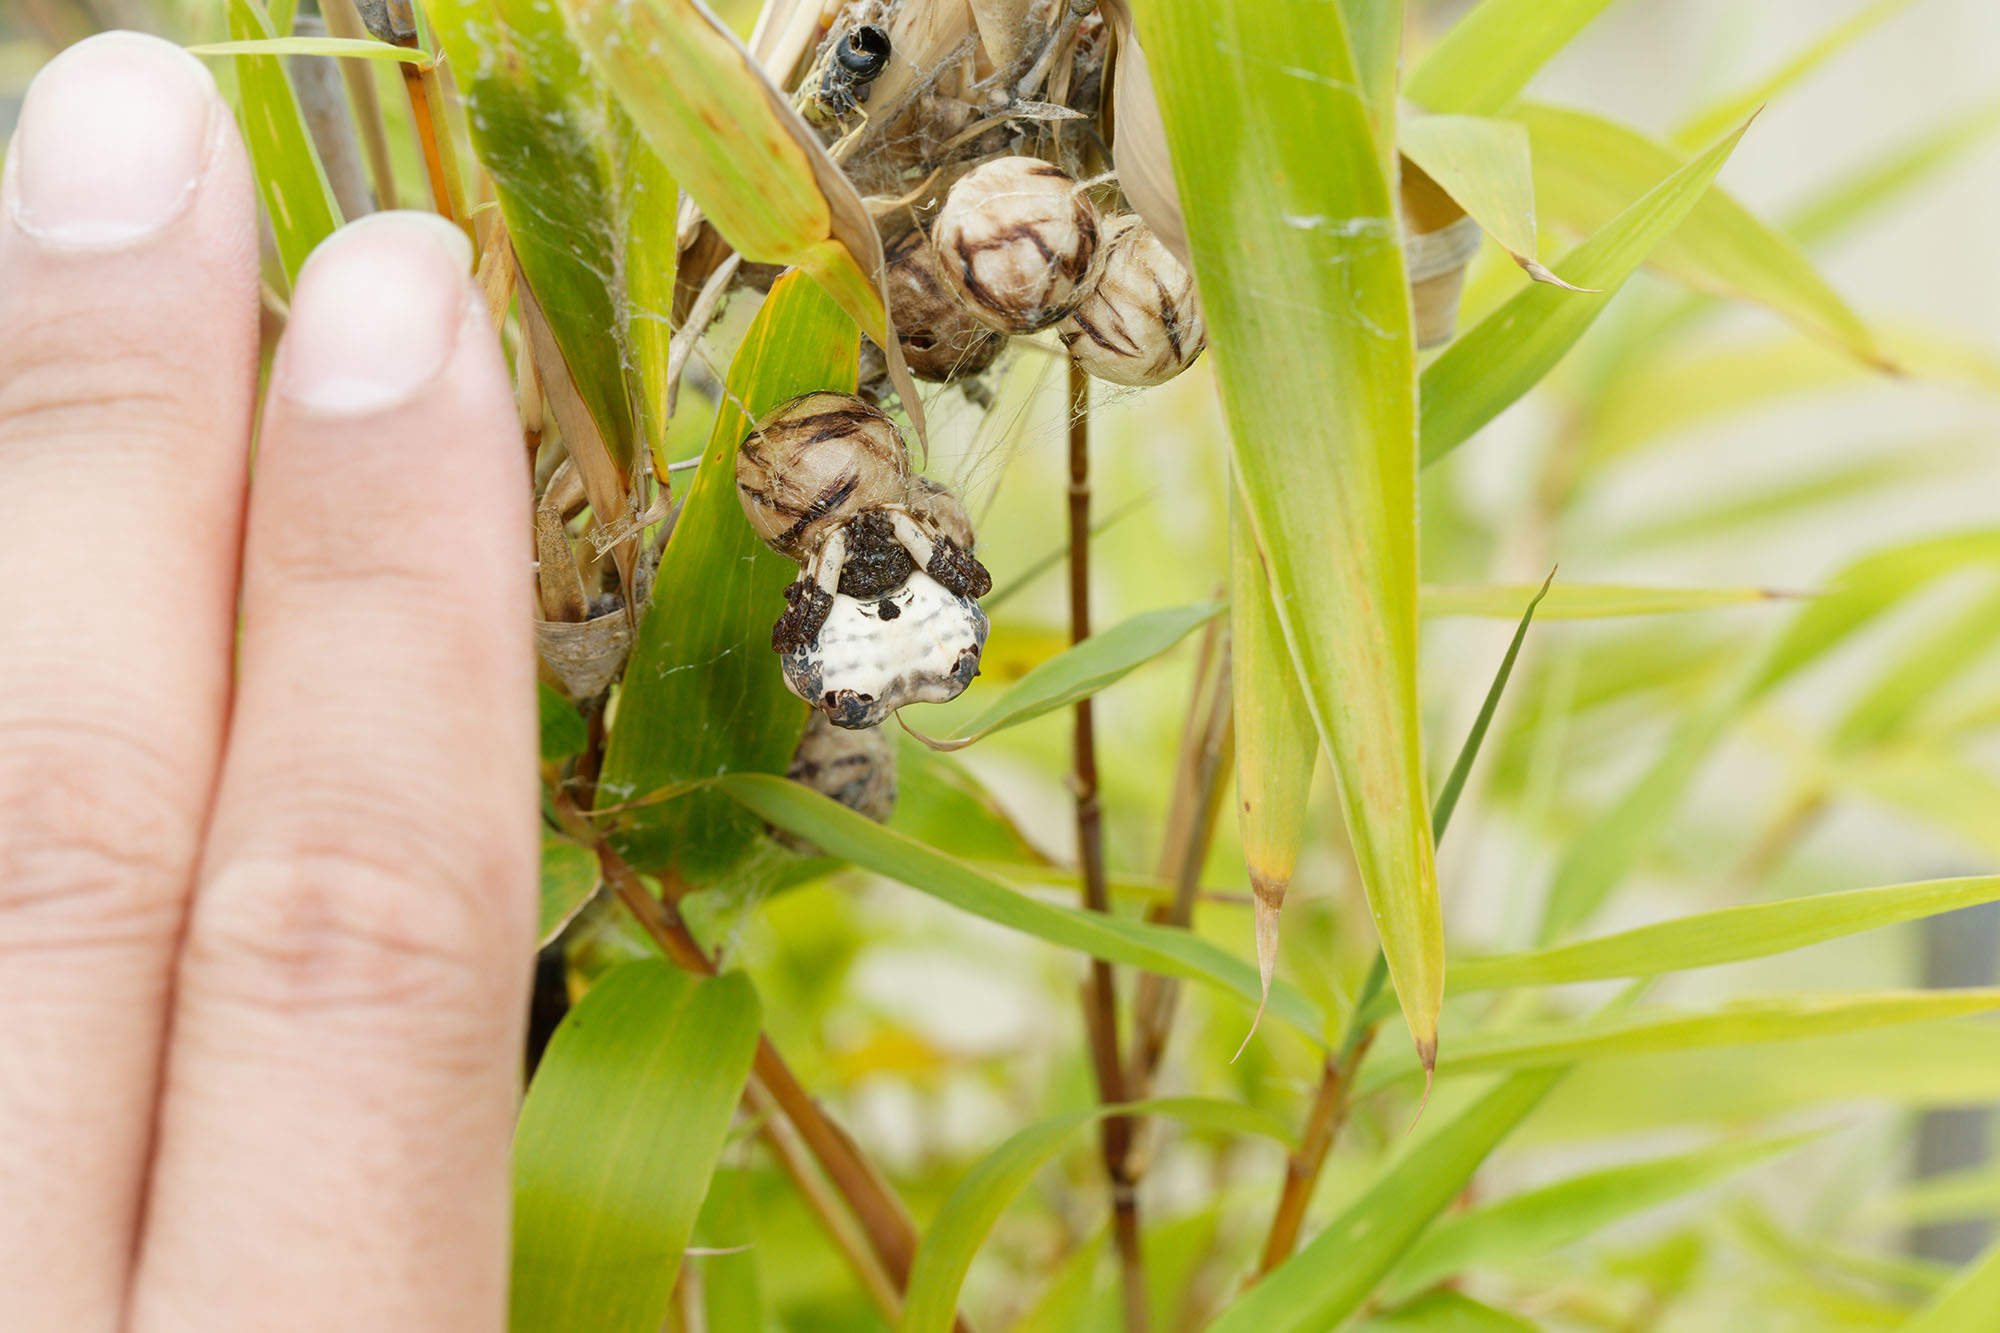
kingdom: Animalia
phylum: Arthropoda
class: Arachnida
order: Araneae
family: Araneidae
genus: Celaenia
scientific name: Celaenia excavata
